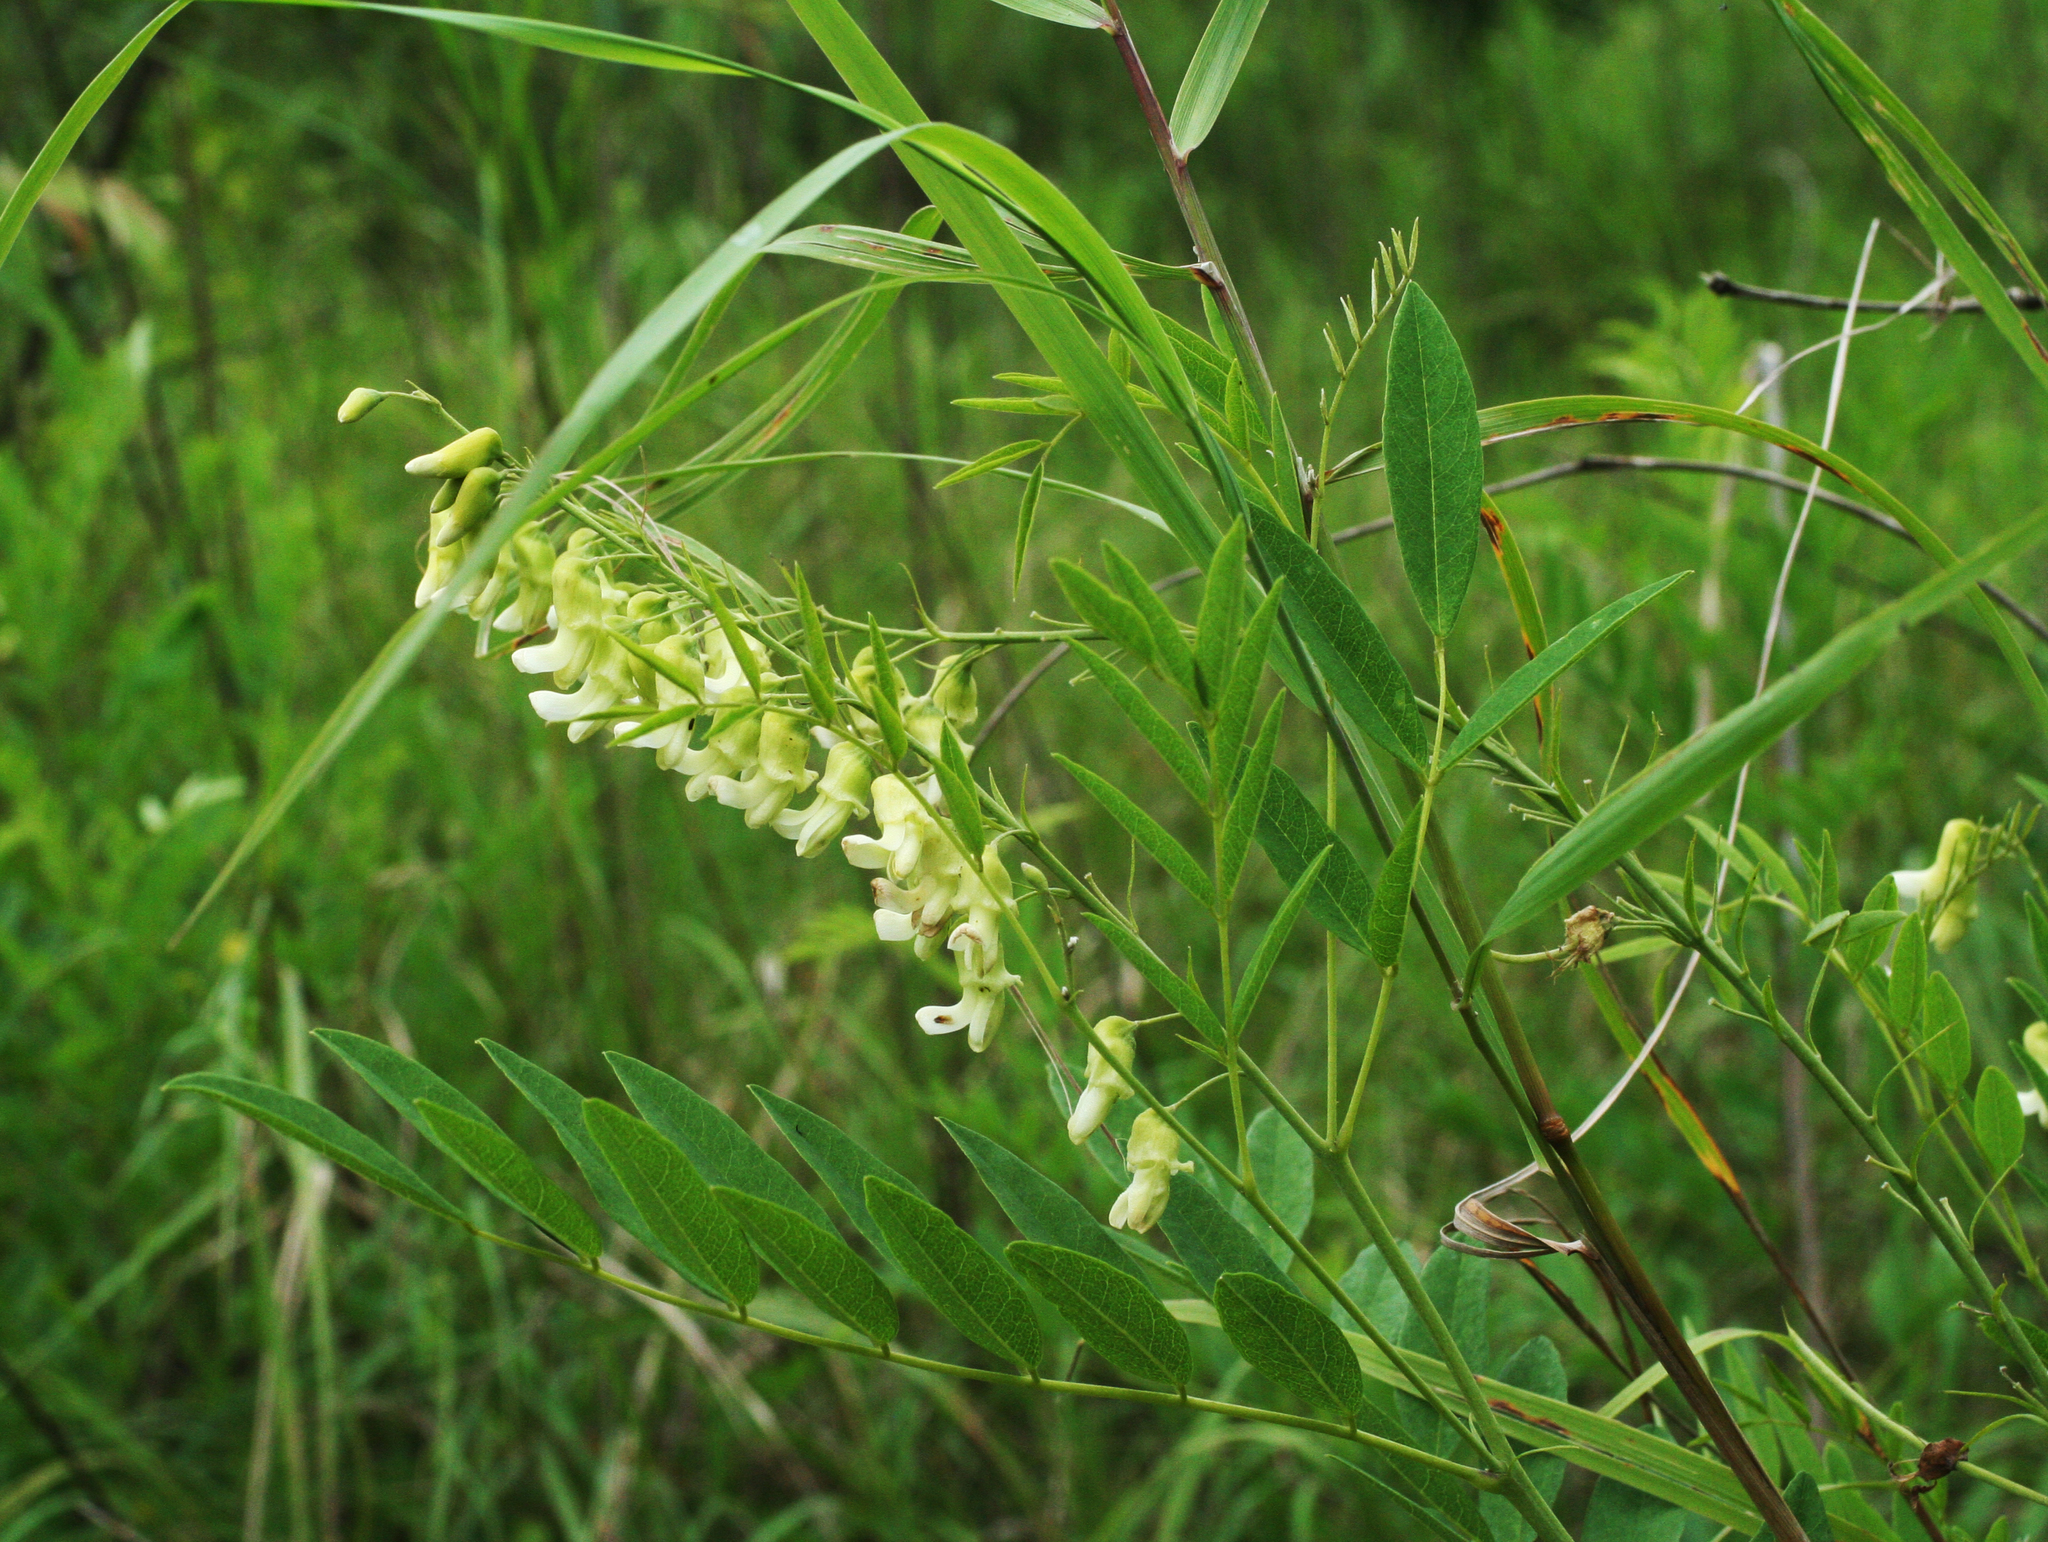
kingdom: Plantae
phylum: Tracheophyta
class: Magnoliopsida
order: Fabales
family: Fabaceae
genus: Sophora
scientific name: Sophora flavescens
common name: Shrubby sophora
